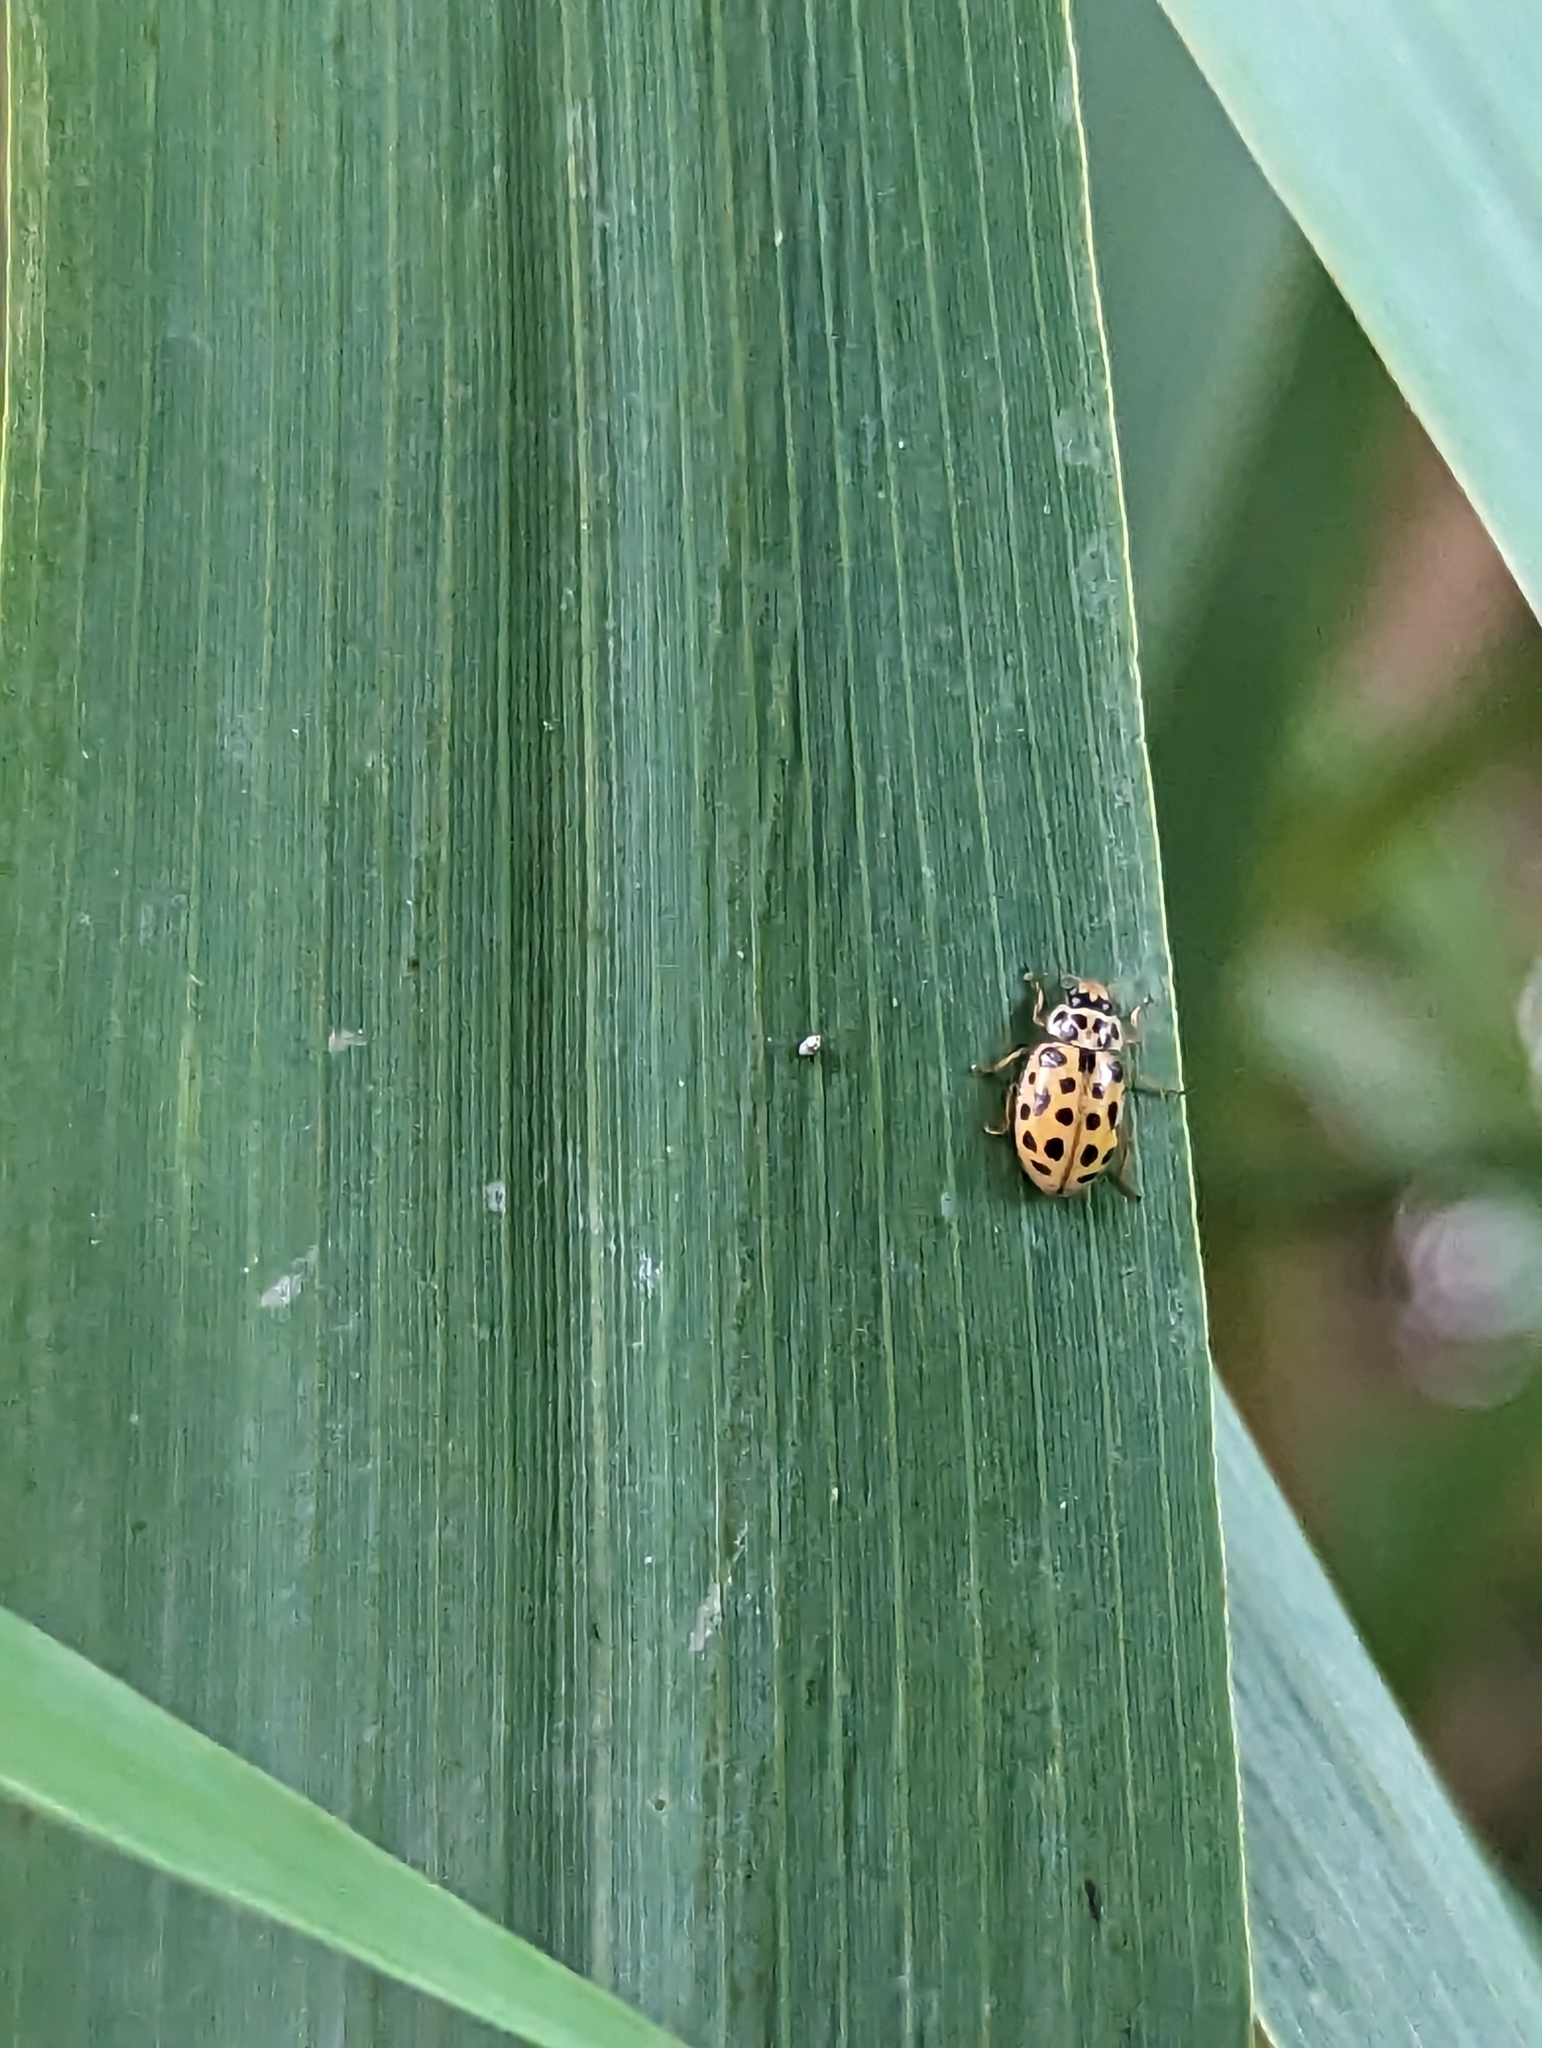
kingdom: Animalia
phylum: Arthropoda
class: Insecta
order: Coleoptera
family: Coccinellidae
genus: Anisosticta
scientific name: Anisosticta novemdecimpunctata
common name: Water ladybird
